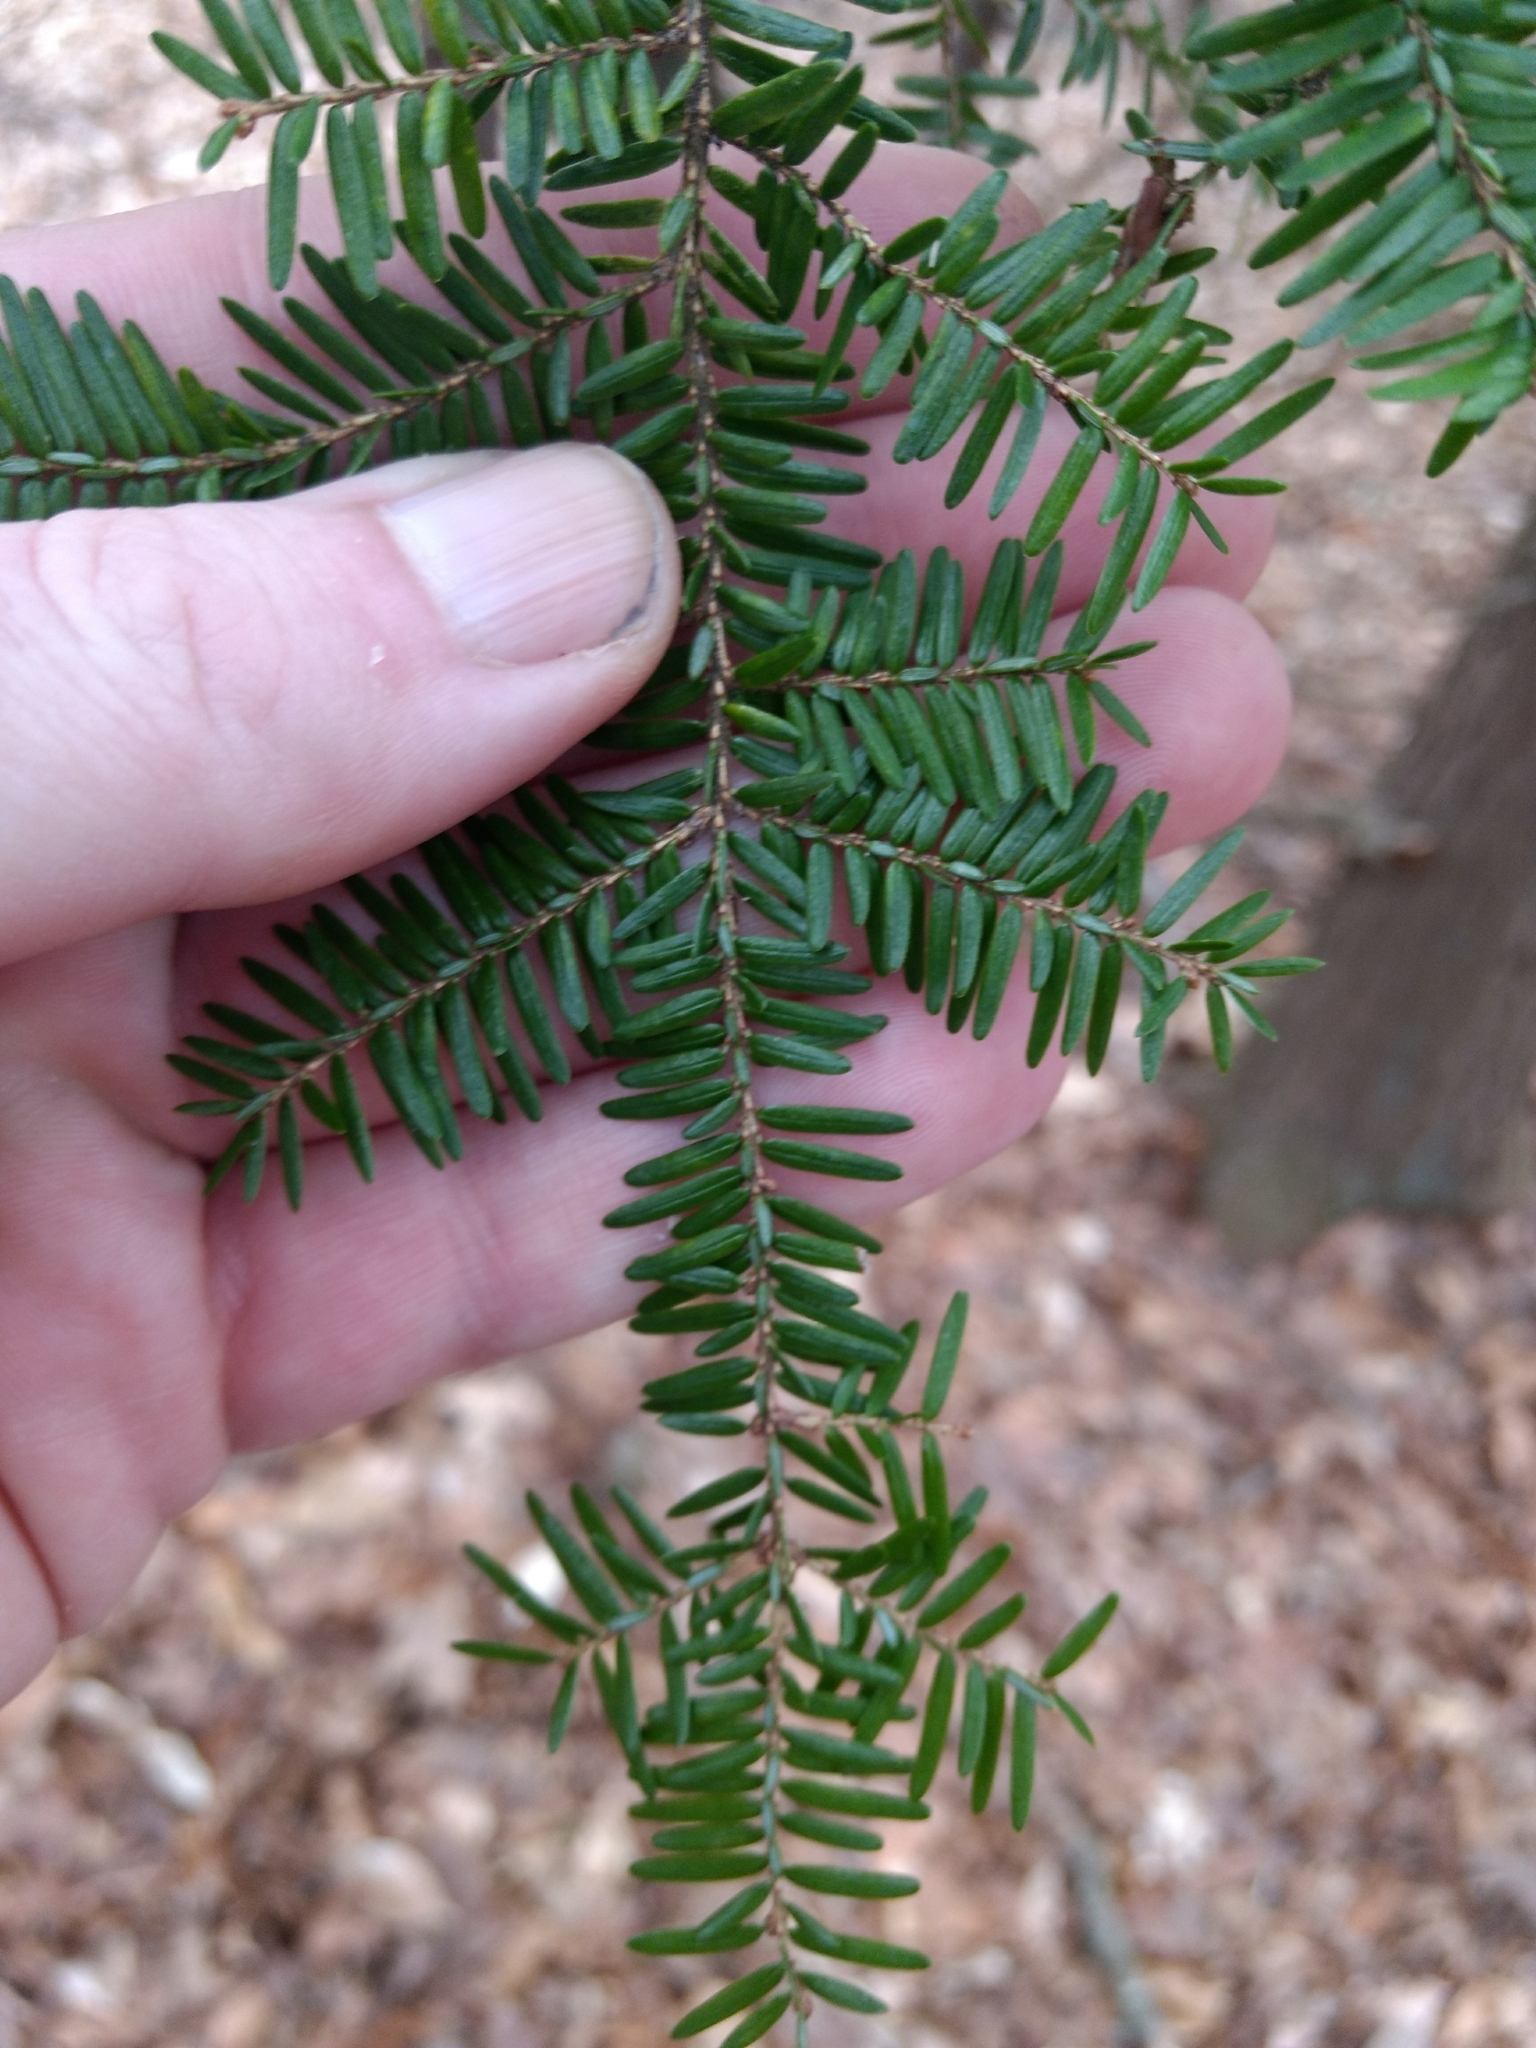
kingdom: Plantae
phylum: Tracheophyta
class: Pinopsida
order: Pinales
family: Pinaceae
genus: Tsuga
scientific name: Tsuga canadensis
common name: Eastern hemlock
